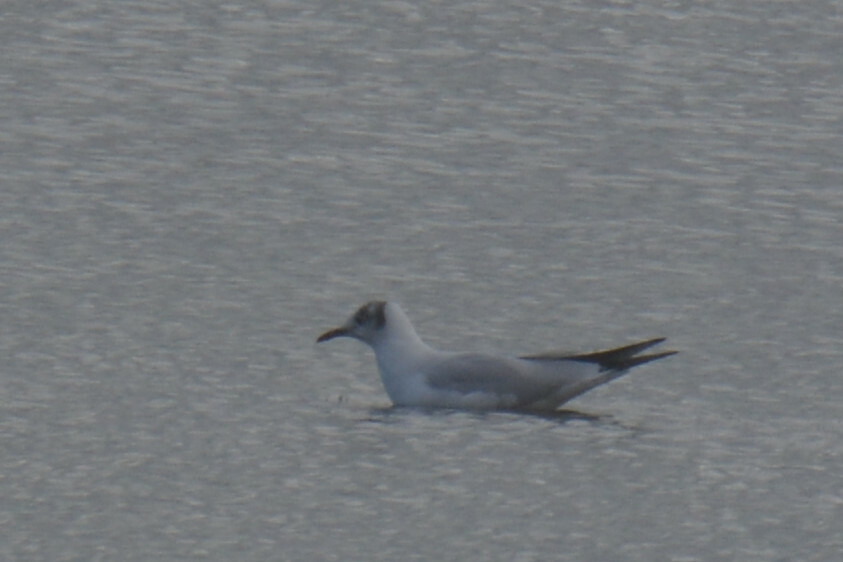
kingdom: Animalia
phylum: Chordata
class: Aves
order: Charadriiformes
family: Laridae
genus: Chroicocephalus
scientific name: Chroicocephalus ridibundus
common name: Black-headed gull
